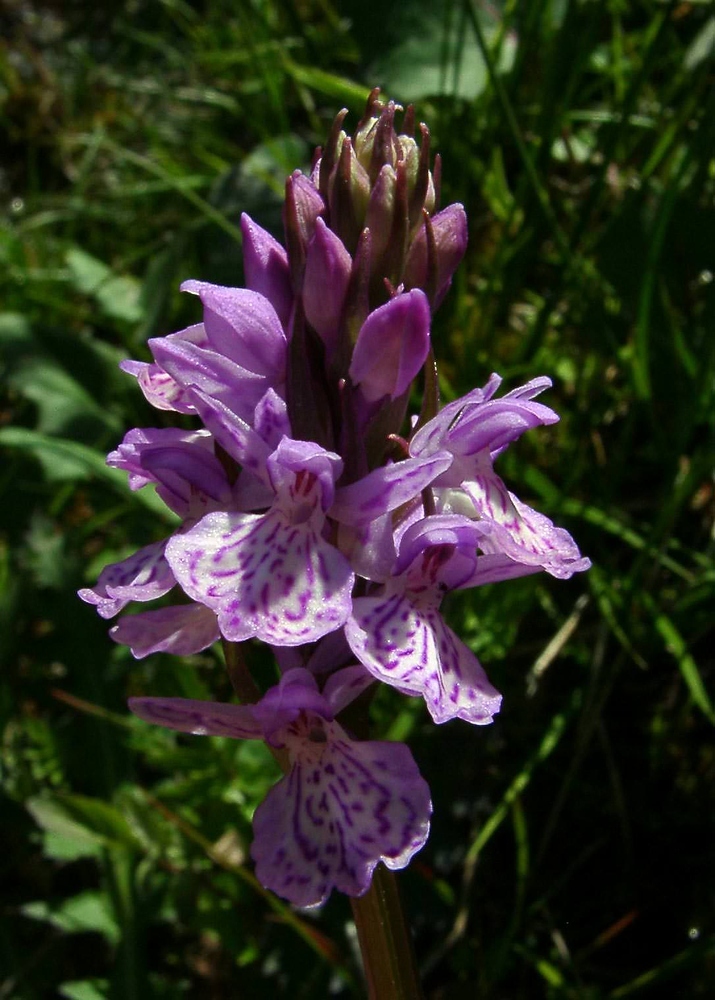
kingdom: Plantae
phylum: Tracheophyta
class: Liliopsida
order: Asparagales
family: Orchidaceae
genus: Dactylorhiza
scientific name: Dactylorhiza maculata
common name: Heath spotted-orchid
